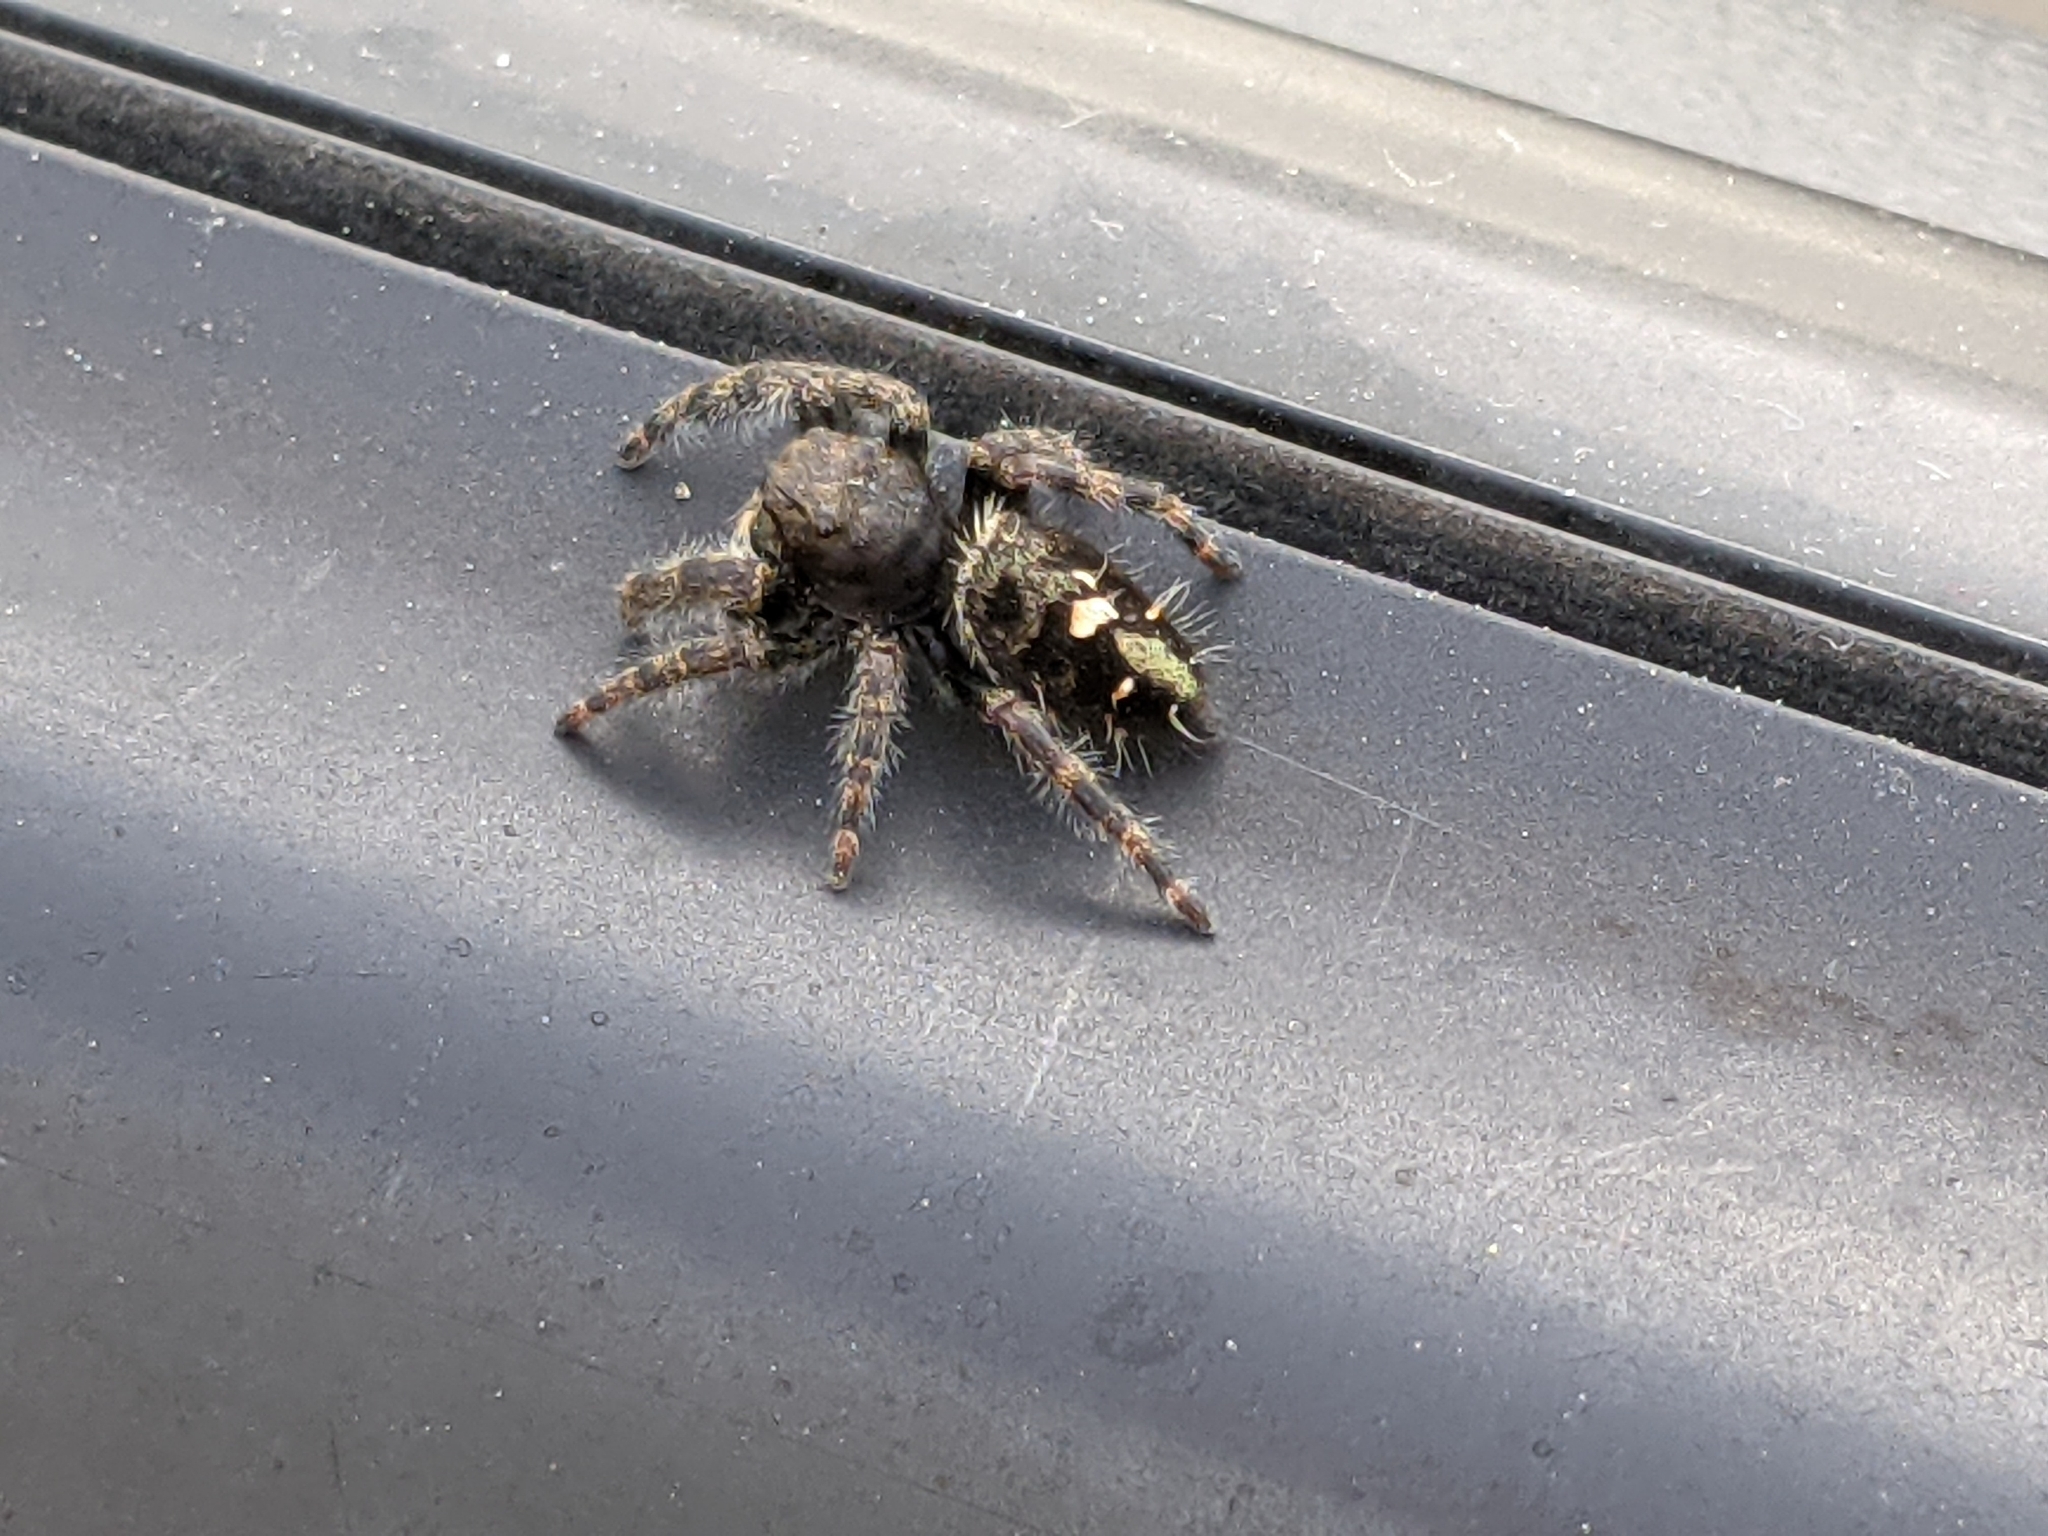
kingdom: Animalia
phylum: Arthropoda
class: Arachnida
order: Araneae
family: Salticidae
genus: Phidippus
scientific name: Phidippus audax
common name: Bold jumper
